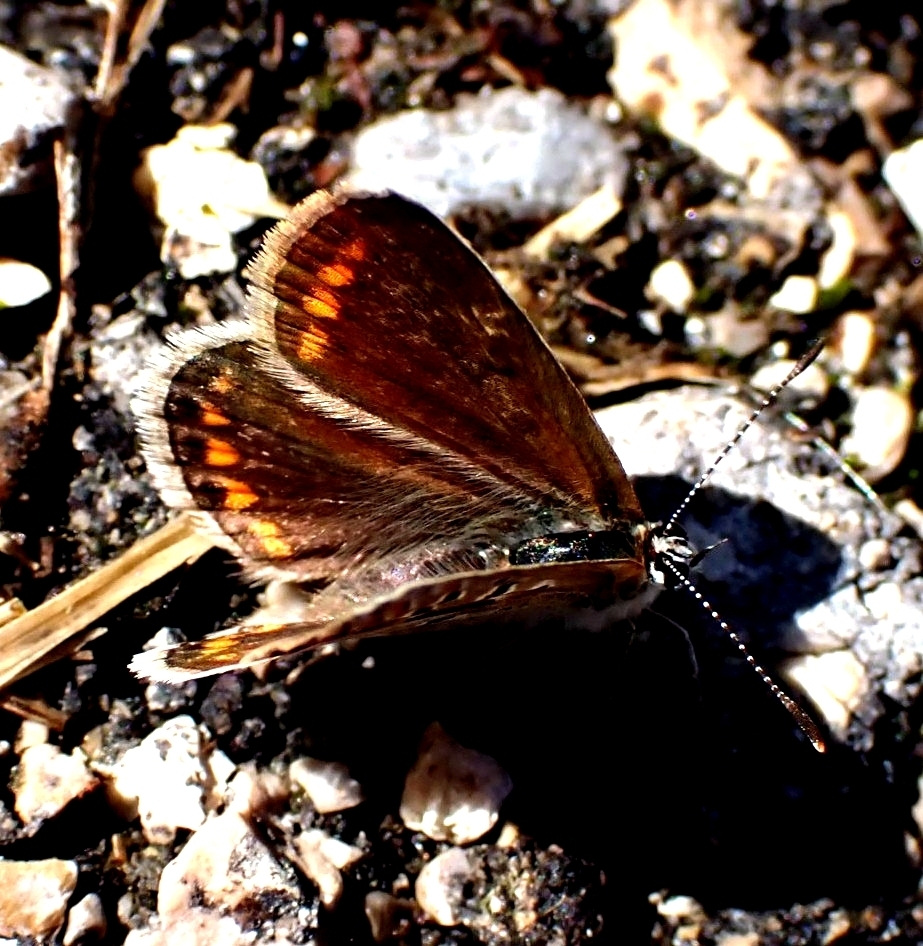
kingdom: Animalia
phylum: Arthropoda
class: Insecta
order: Lepidoptera
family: Lycaenidae
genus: Polyommatus
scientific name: Polyommatus icarus
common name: Common blue
